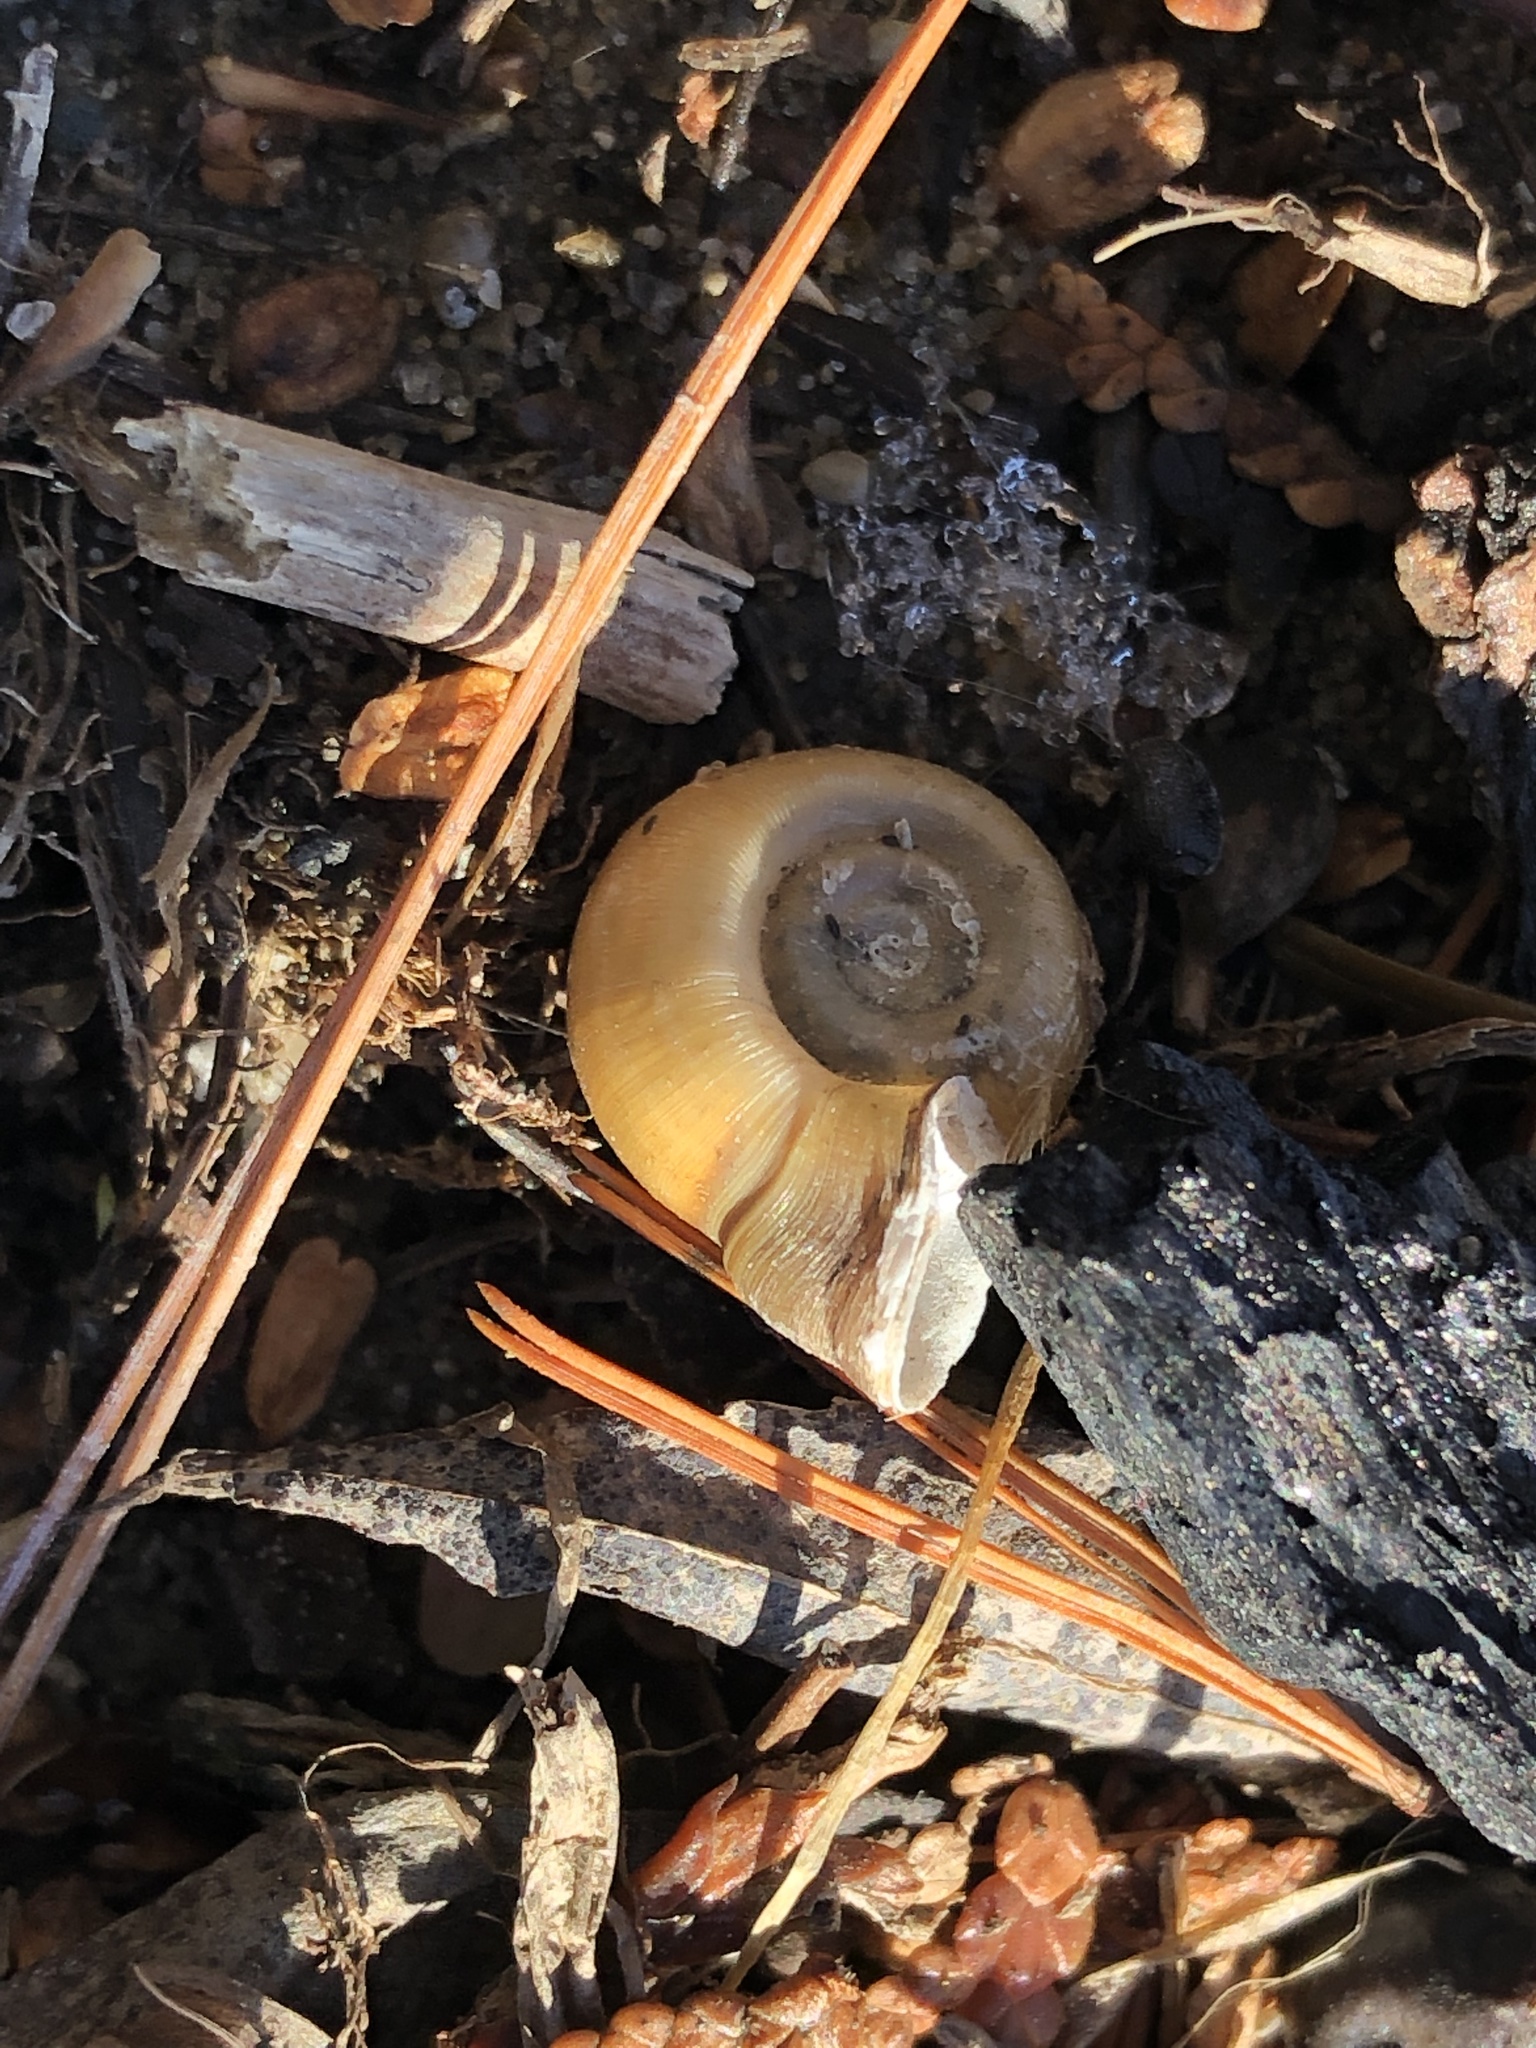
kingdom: Animalia
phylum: Mollusca
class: Gastropoda
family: Planorbidae
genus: Planorbella
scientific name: Planorbella campanulata
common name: Bellmouth ramshorn
